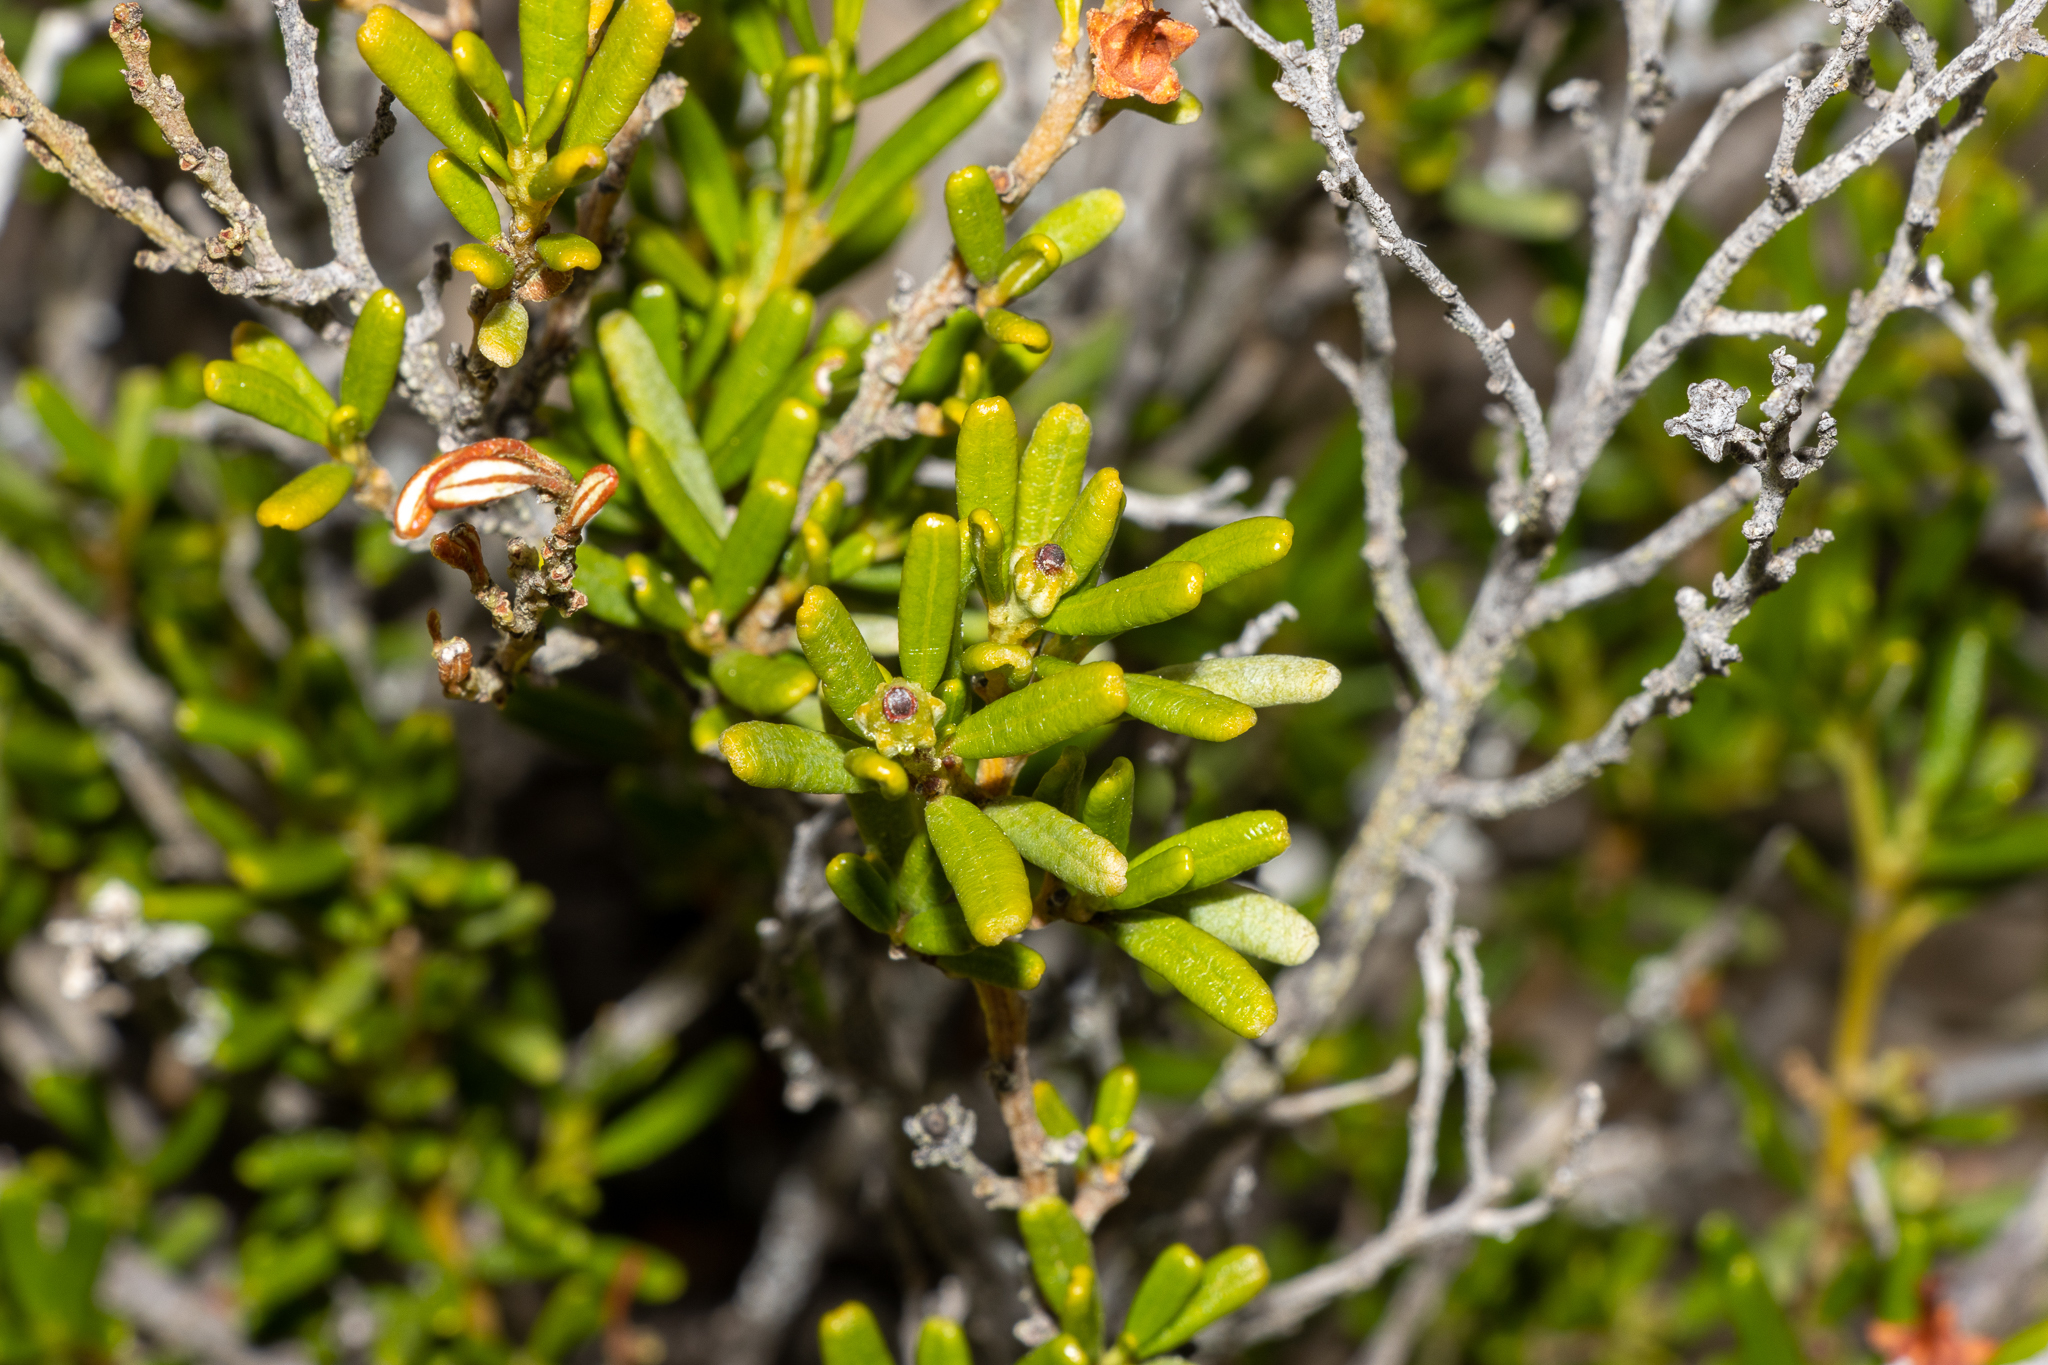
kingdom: Plantae
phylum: Tracheophyta
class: Magnoliopsida
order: Malpighiales
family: Euphorbiaceae
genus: Beyeria
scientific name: Beyeria lechenaultii
